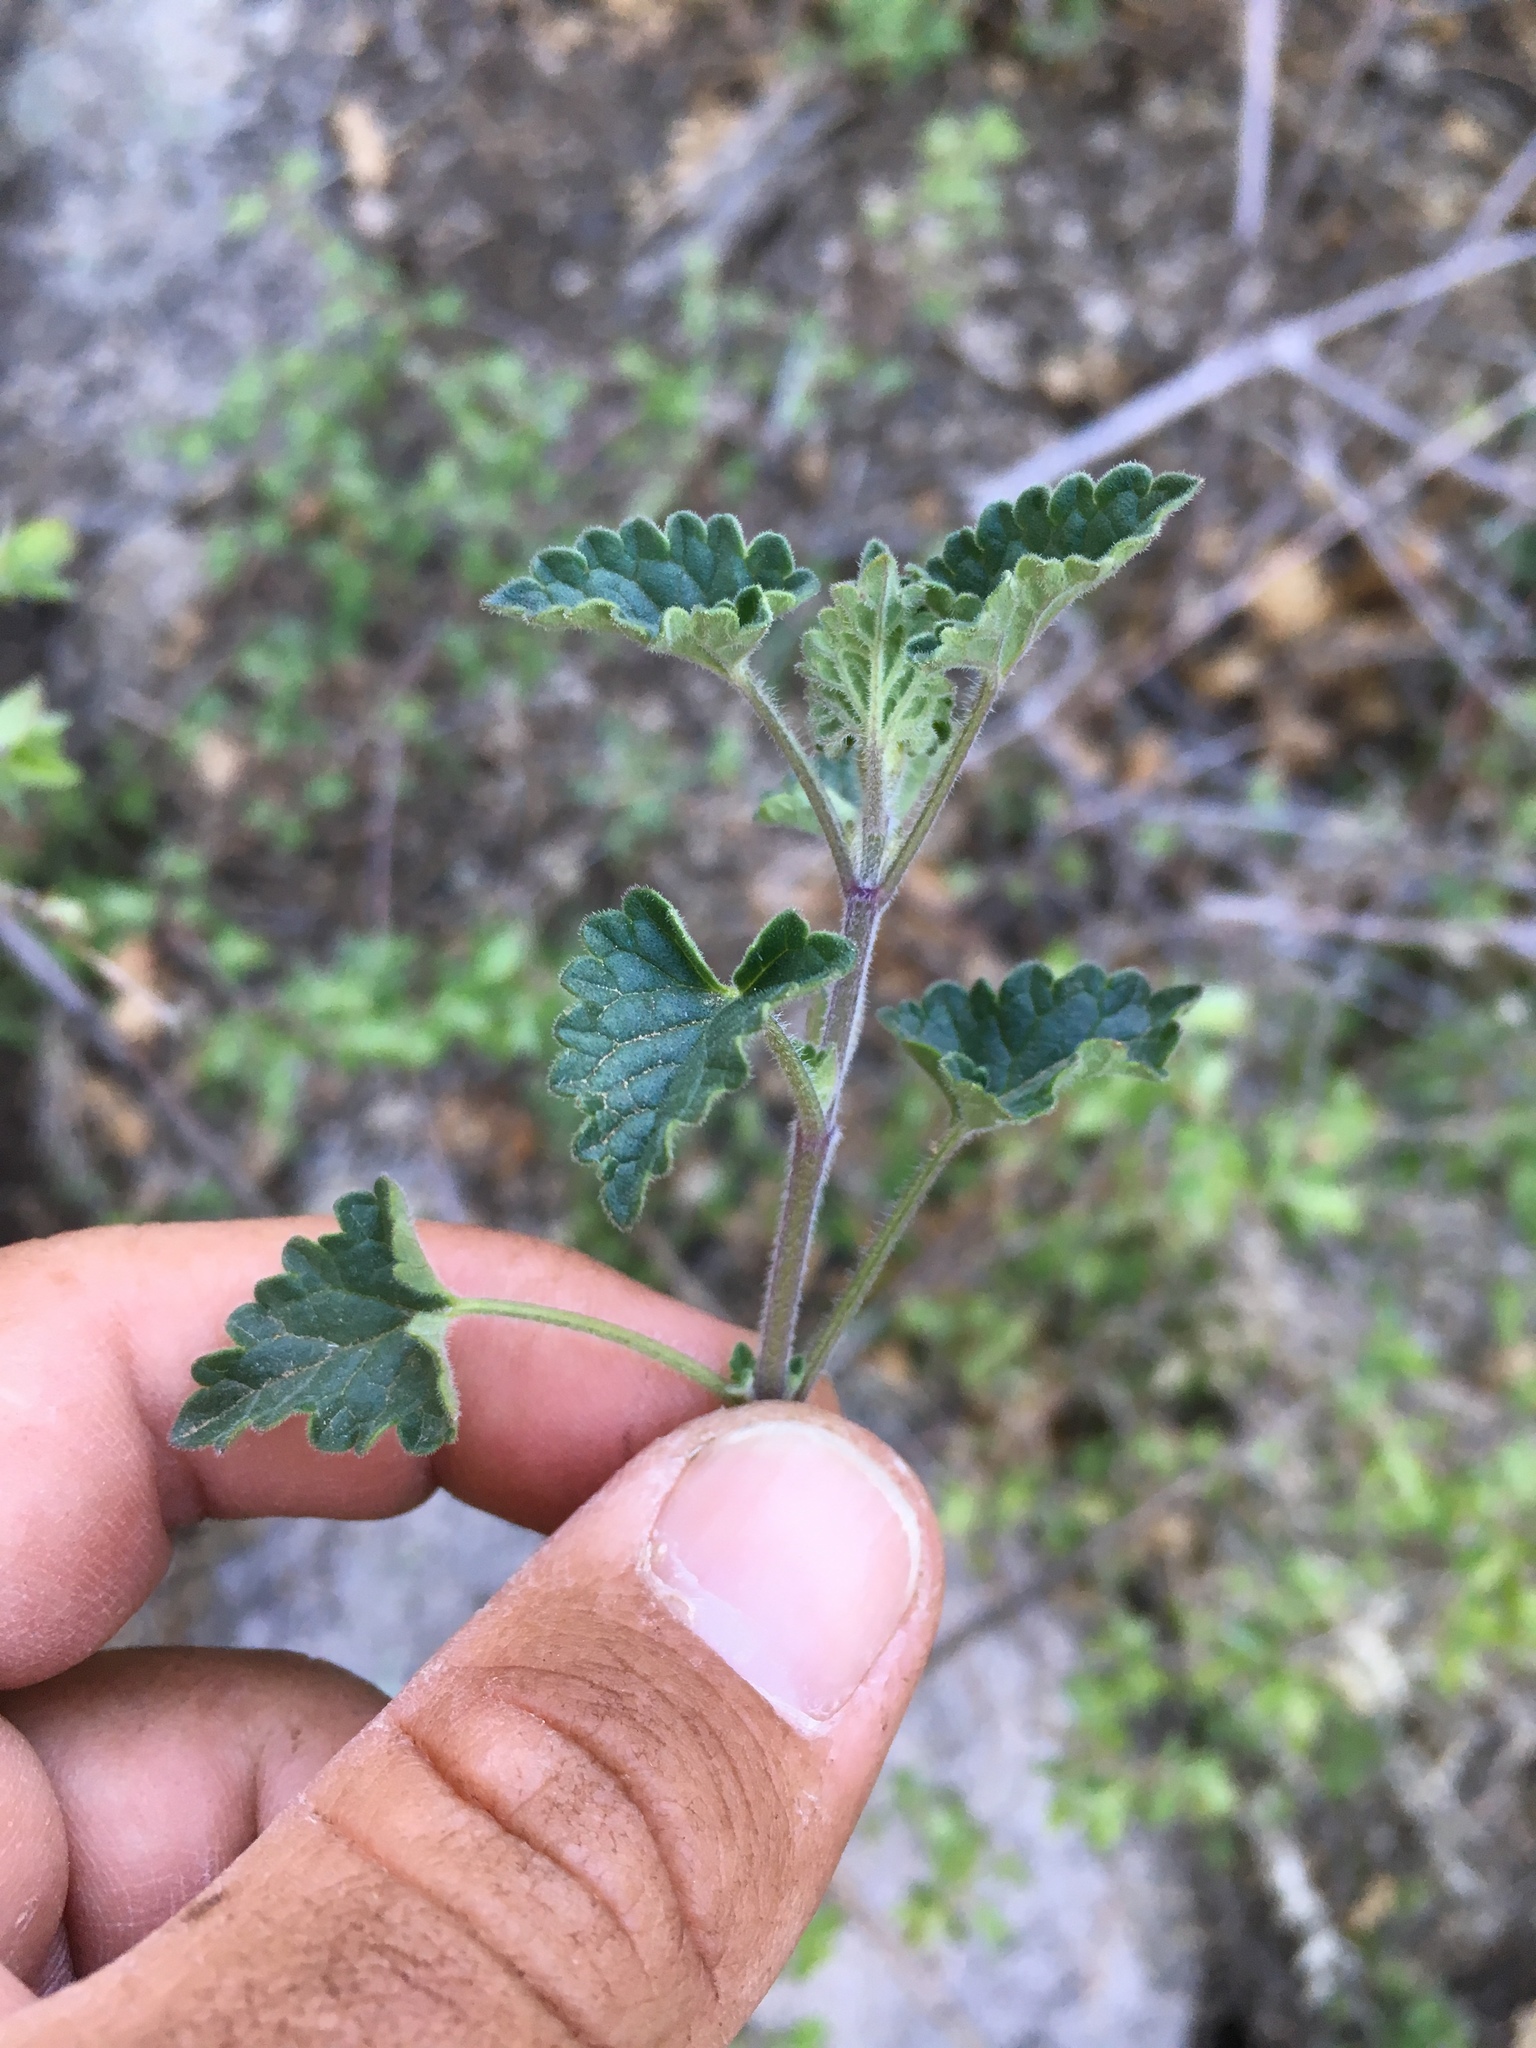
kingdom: Plantae
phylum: Tracheophyta
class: Magnoliopsida
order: Lamiales
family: Lamiaceae
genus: Agastache
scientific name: Agastache pringlei
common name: Pringle's giant hyssop
